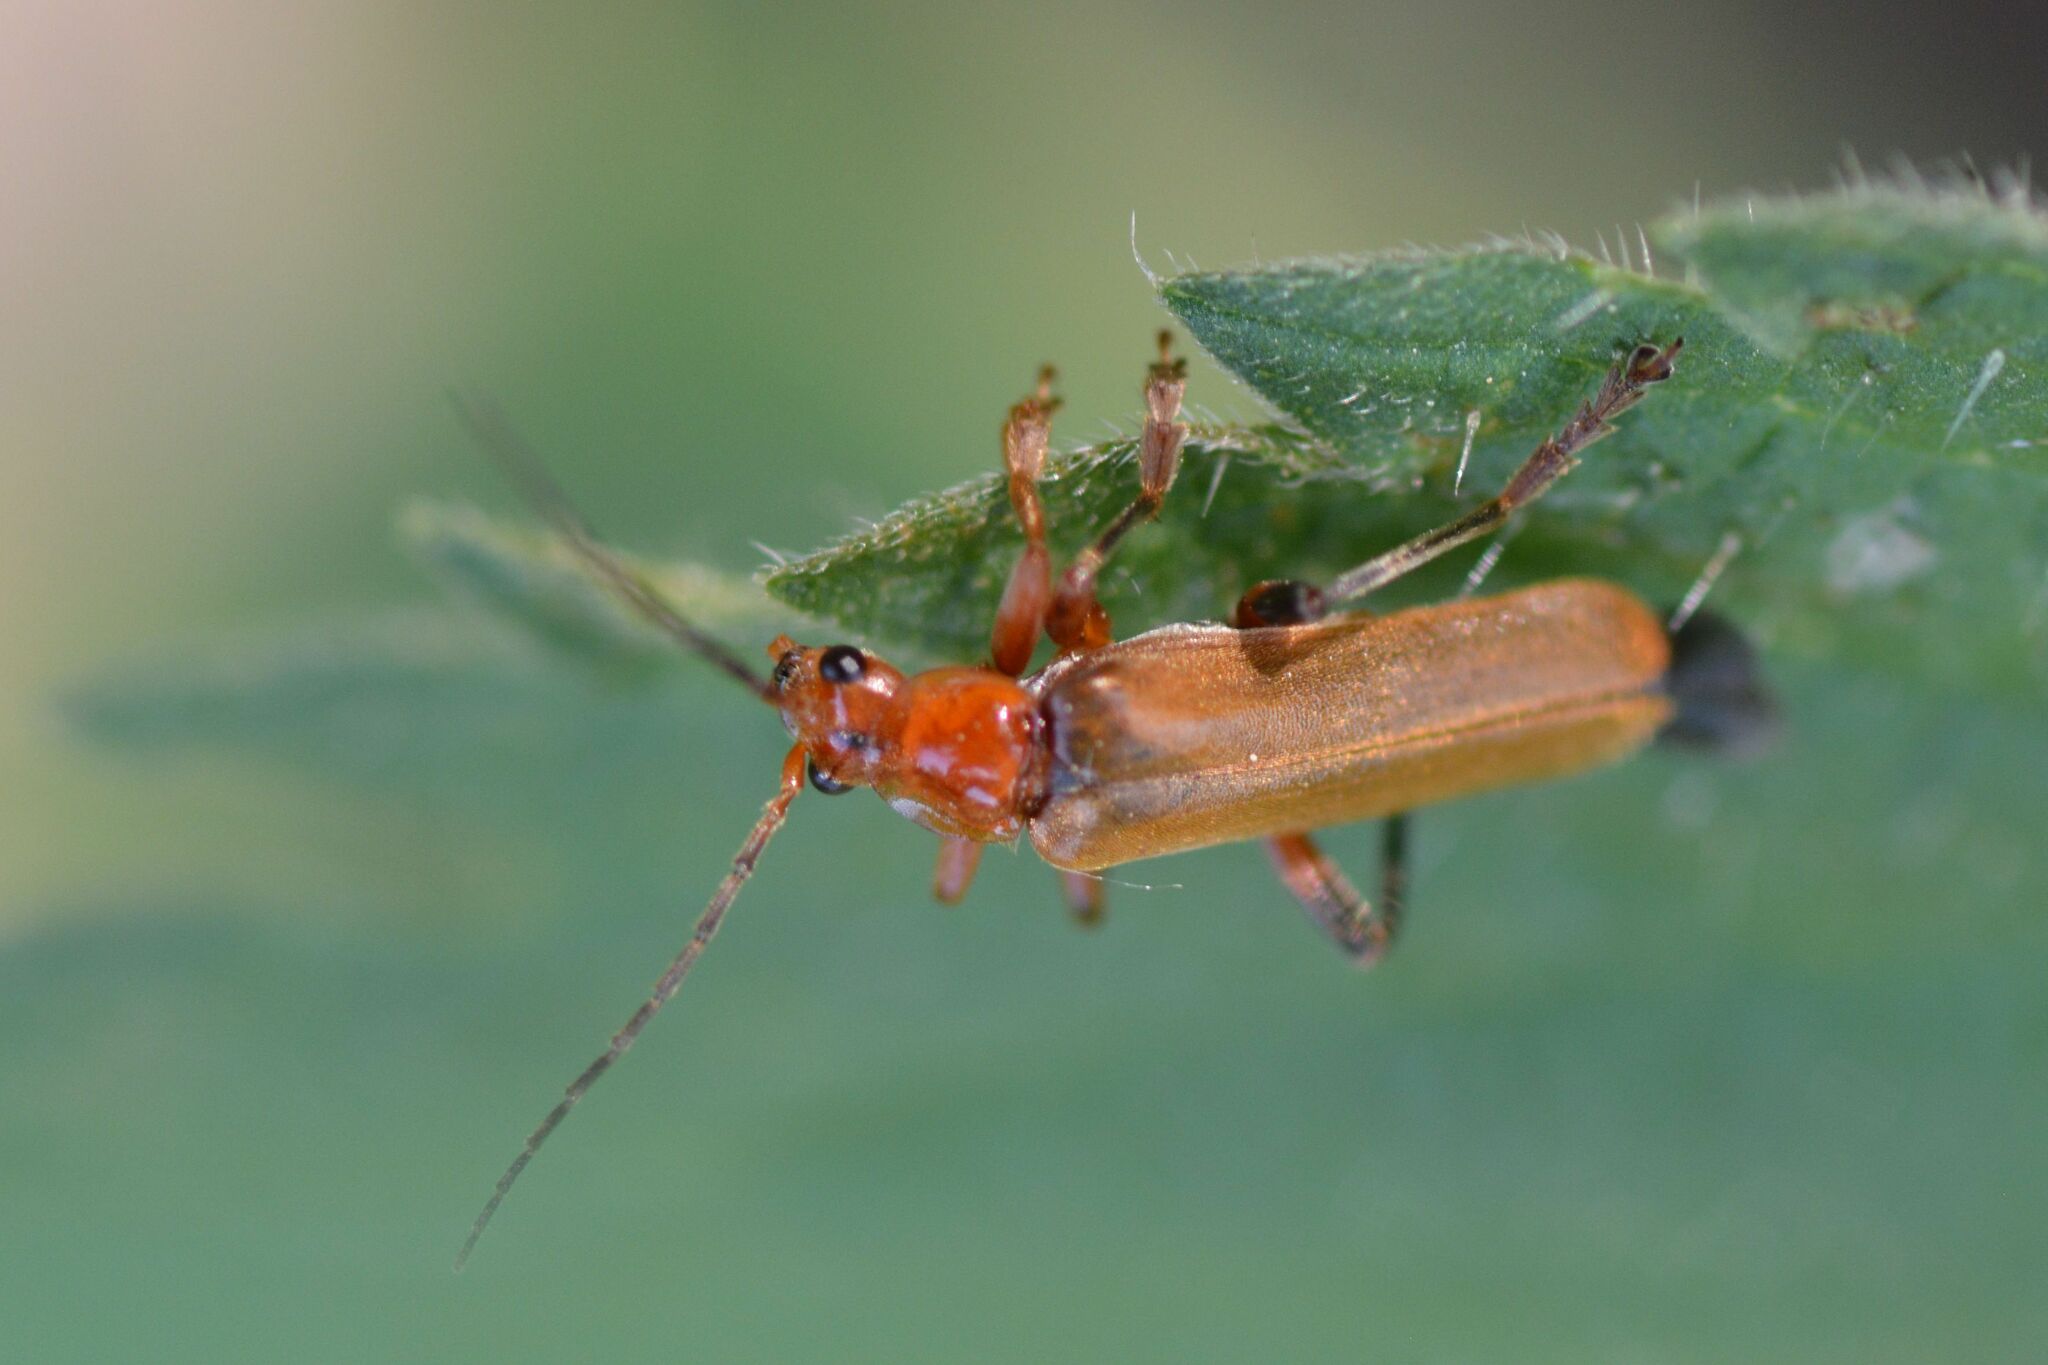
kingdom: Animalia
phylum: Arthropoda
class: Insecta
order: Coleoptera
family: Cantharidae
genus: Cantharis
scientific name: Cantharis livida
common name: Livid soldier beetle
